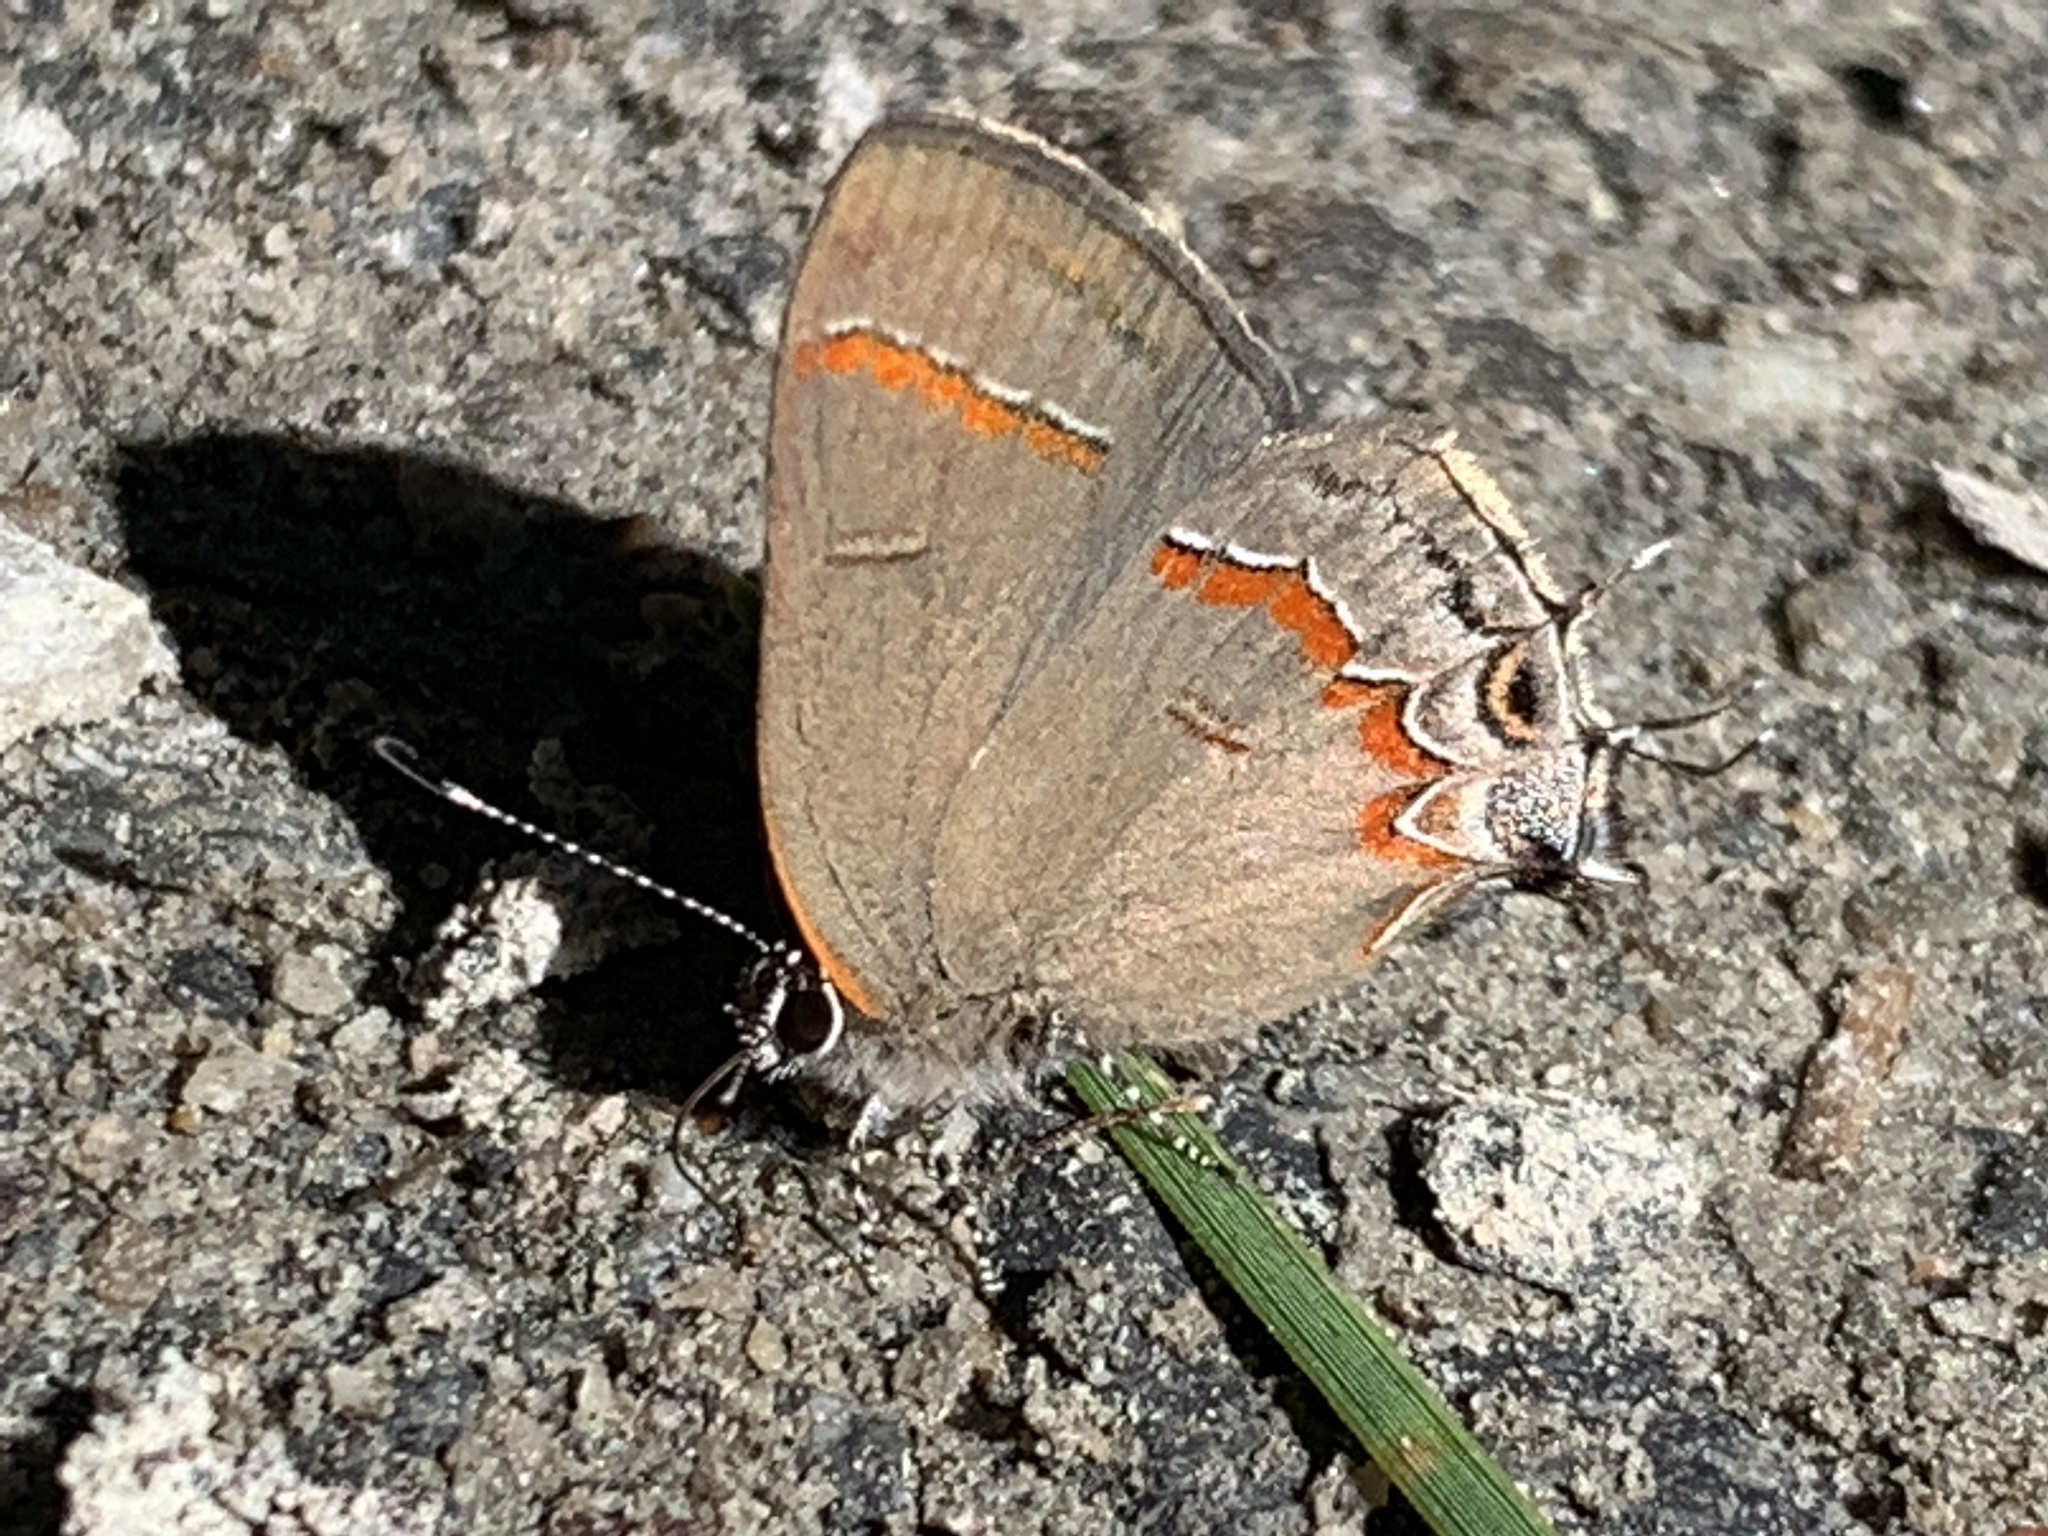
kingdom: Animalia
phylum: Arthropoda
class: Insecta
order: Lepidoptera
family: Lycaenidae
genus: Calycopis
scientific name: Calycopis cecrops
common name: Red-banded hairstreak
